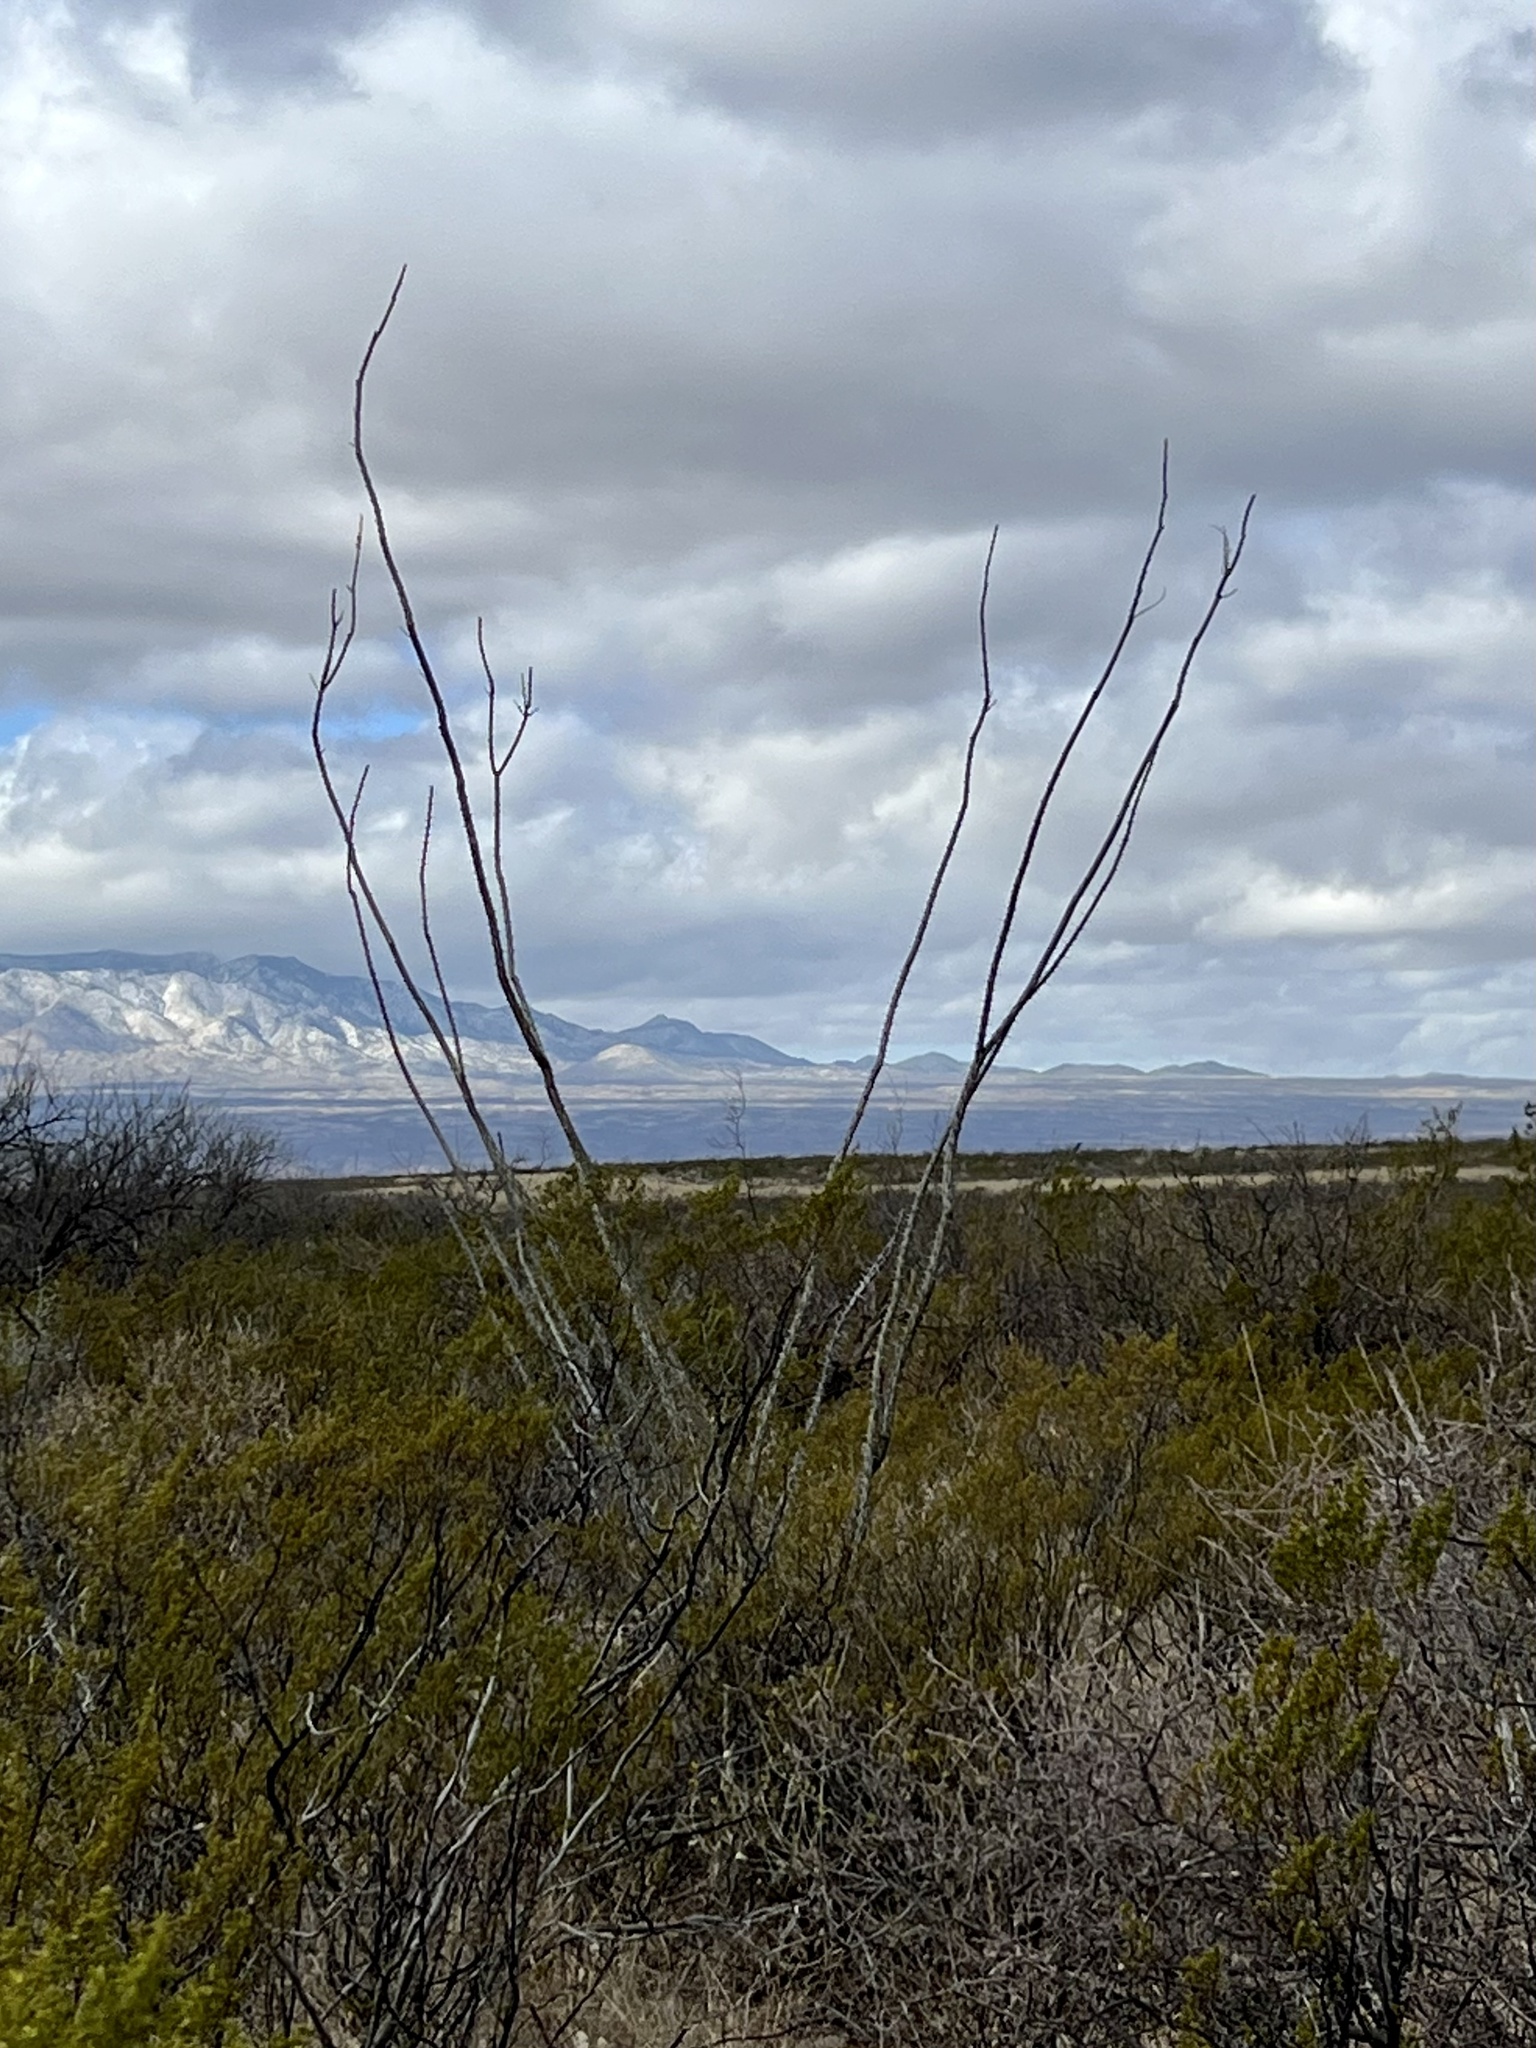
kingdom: Plantae
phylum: Tracheophyta
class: Magnoliopsida
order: Ericales
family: Fouquieriaceae
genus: Fouquieria
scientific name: Fouquieria splendens
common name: Vine-cactus
